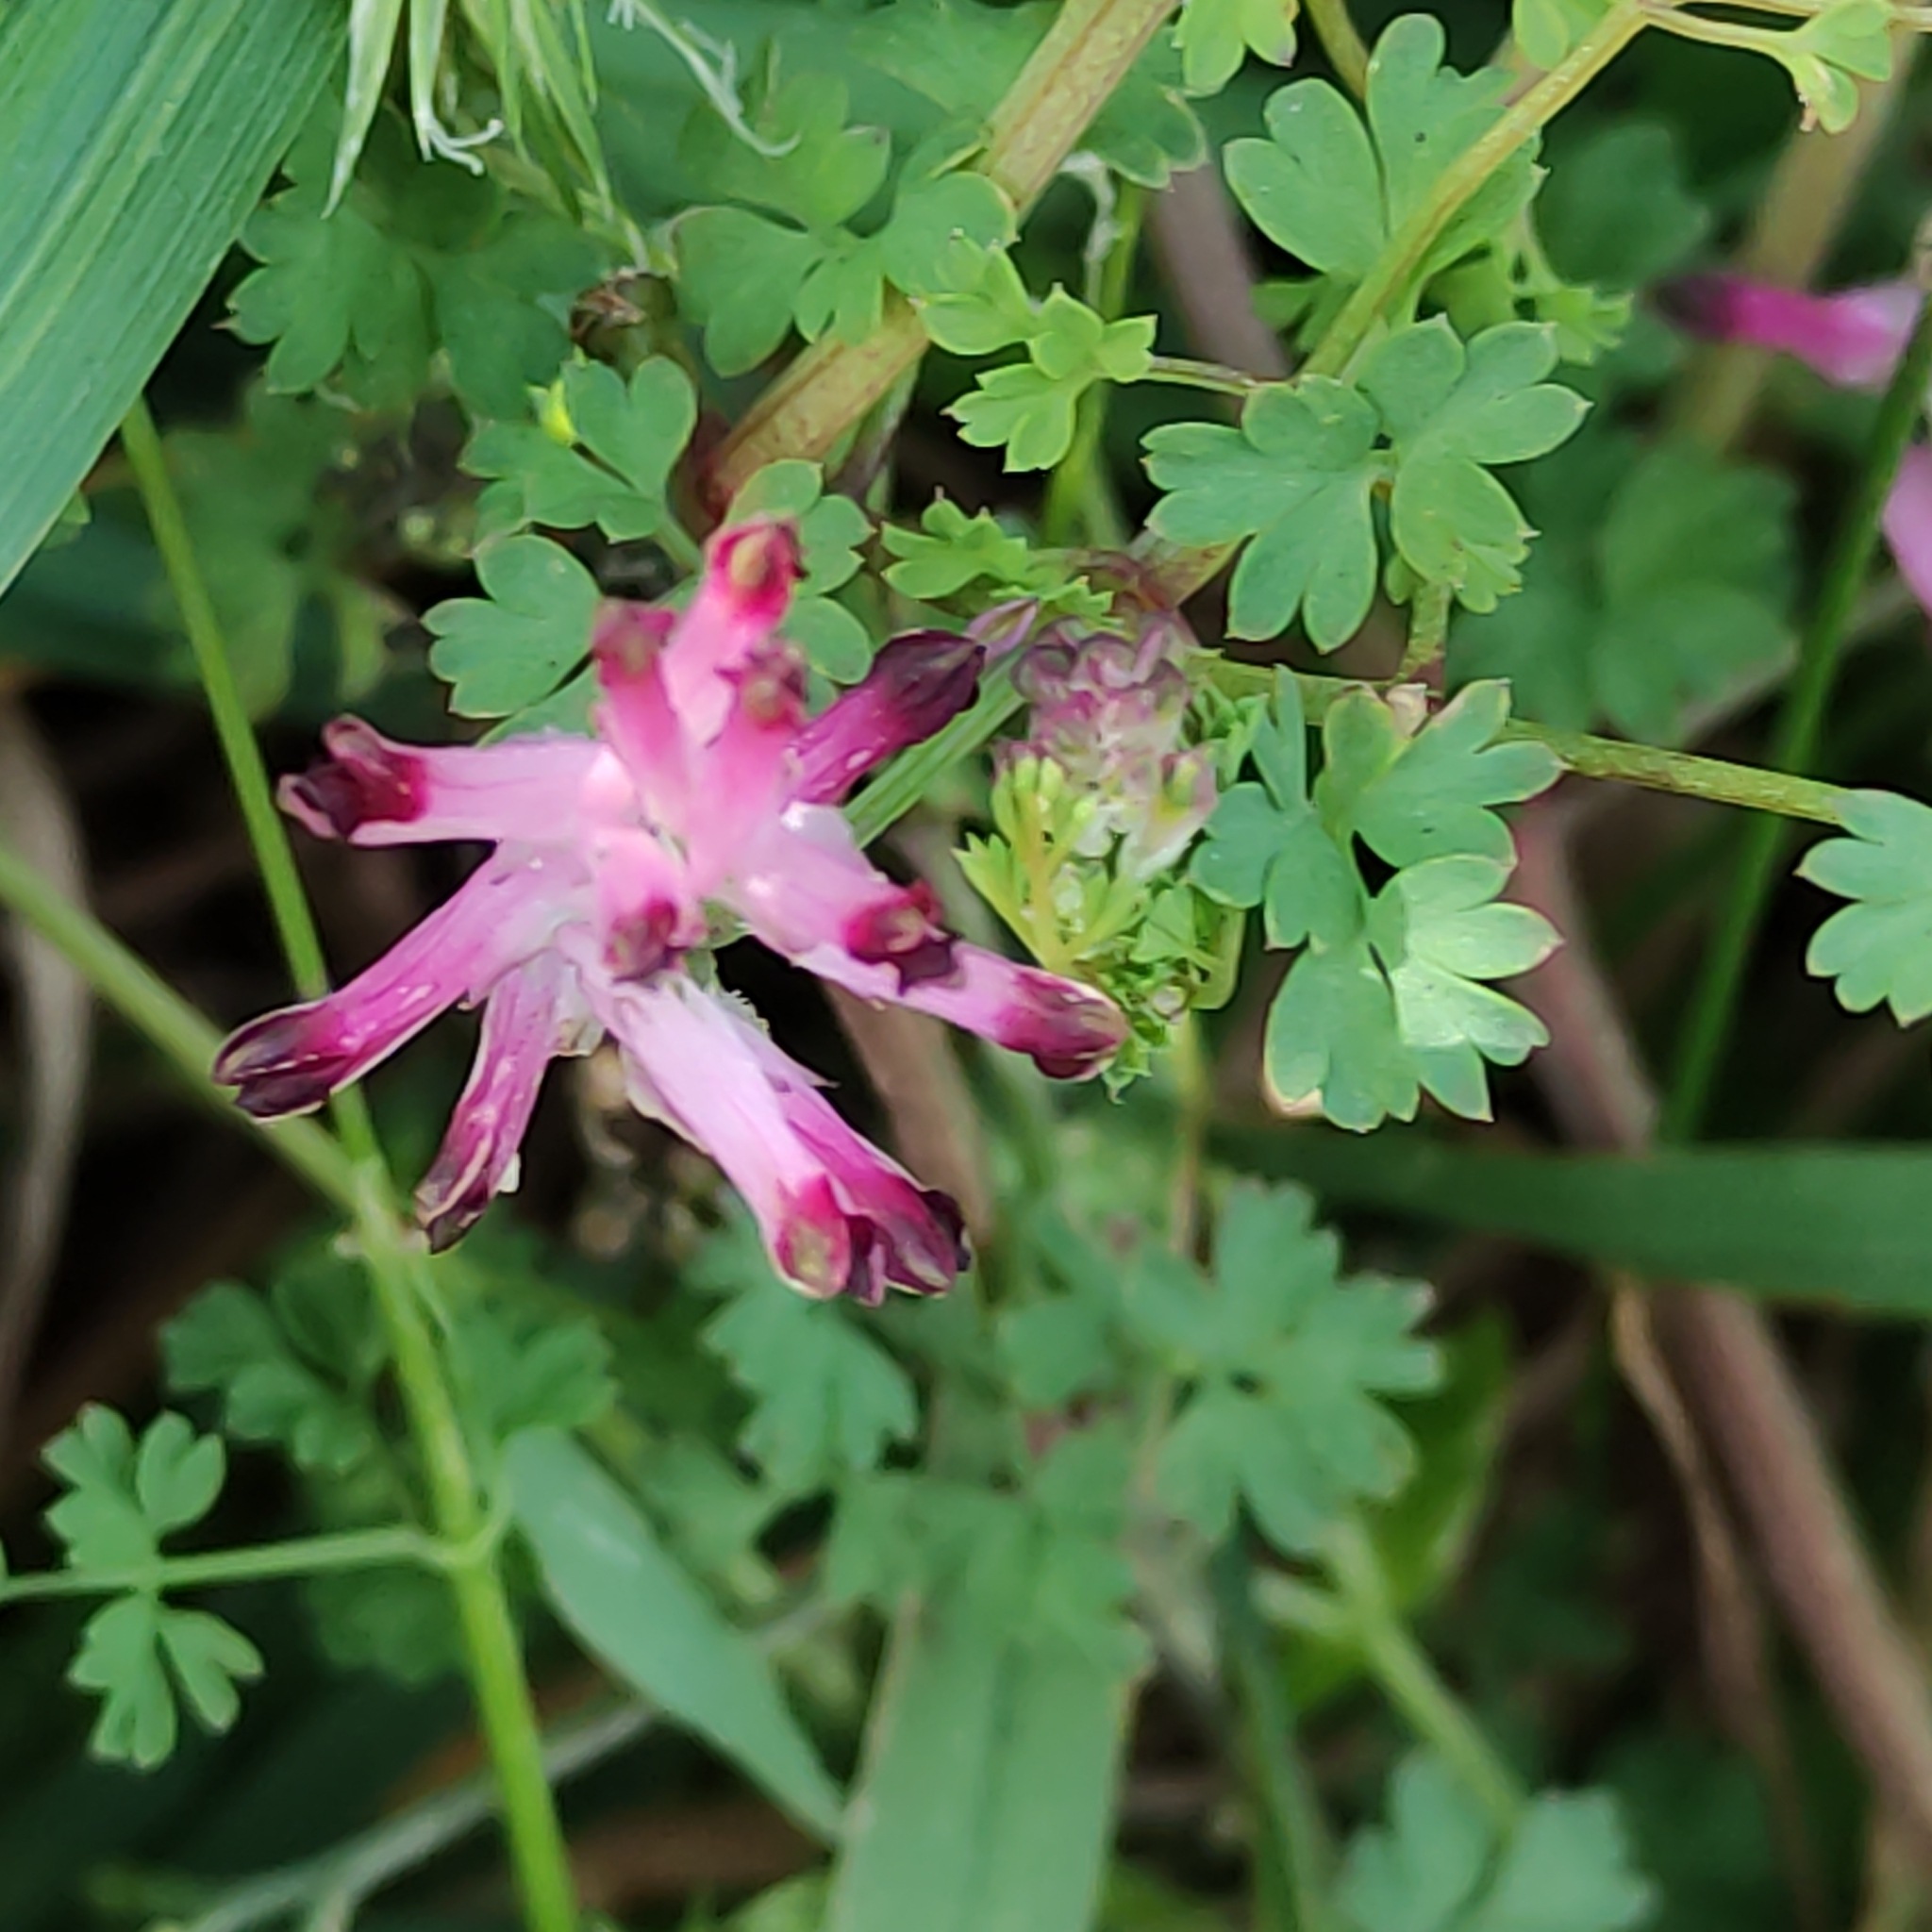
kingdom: Plantae
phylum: Tracheophyta
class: Magnoliopsida
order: Ranunculales
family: Papaveraceae
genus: Fumaria
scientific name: Fumaria muralis
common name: Common ramping-fumitory
